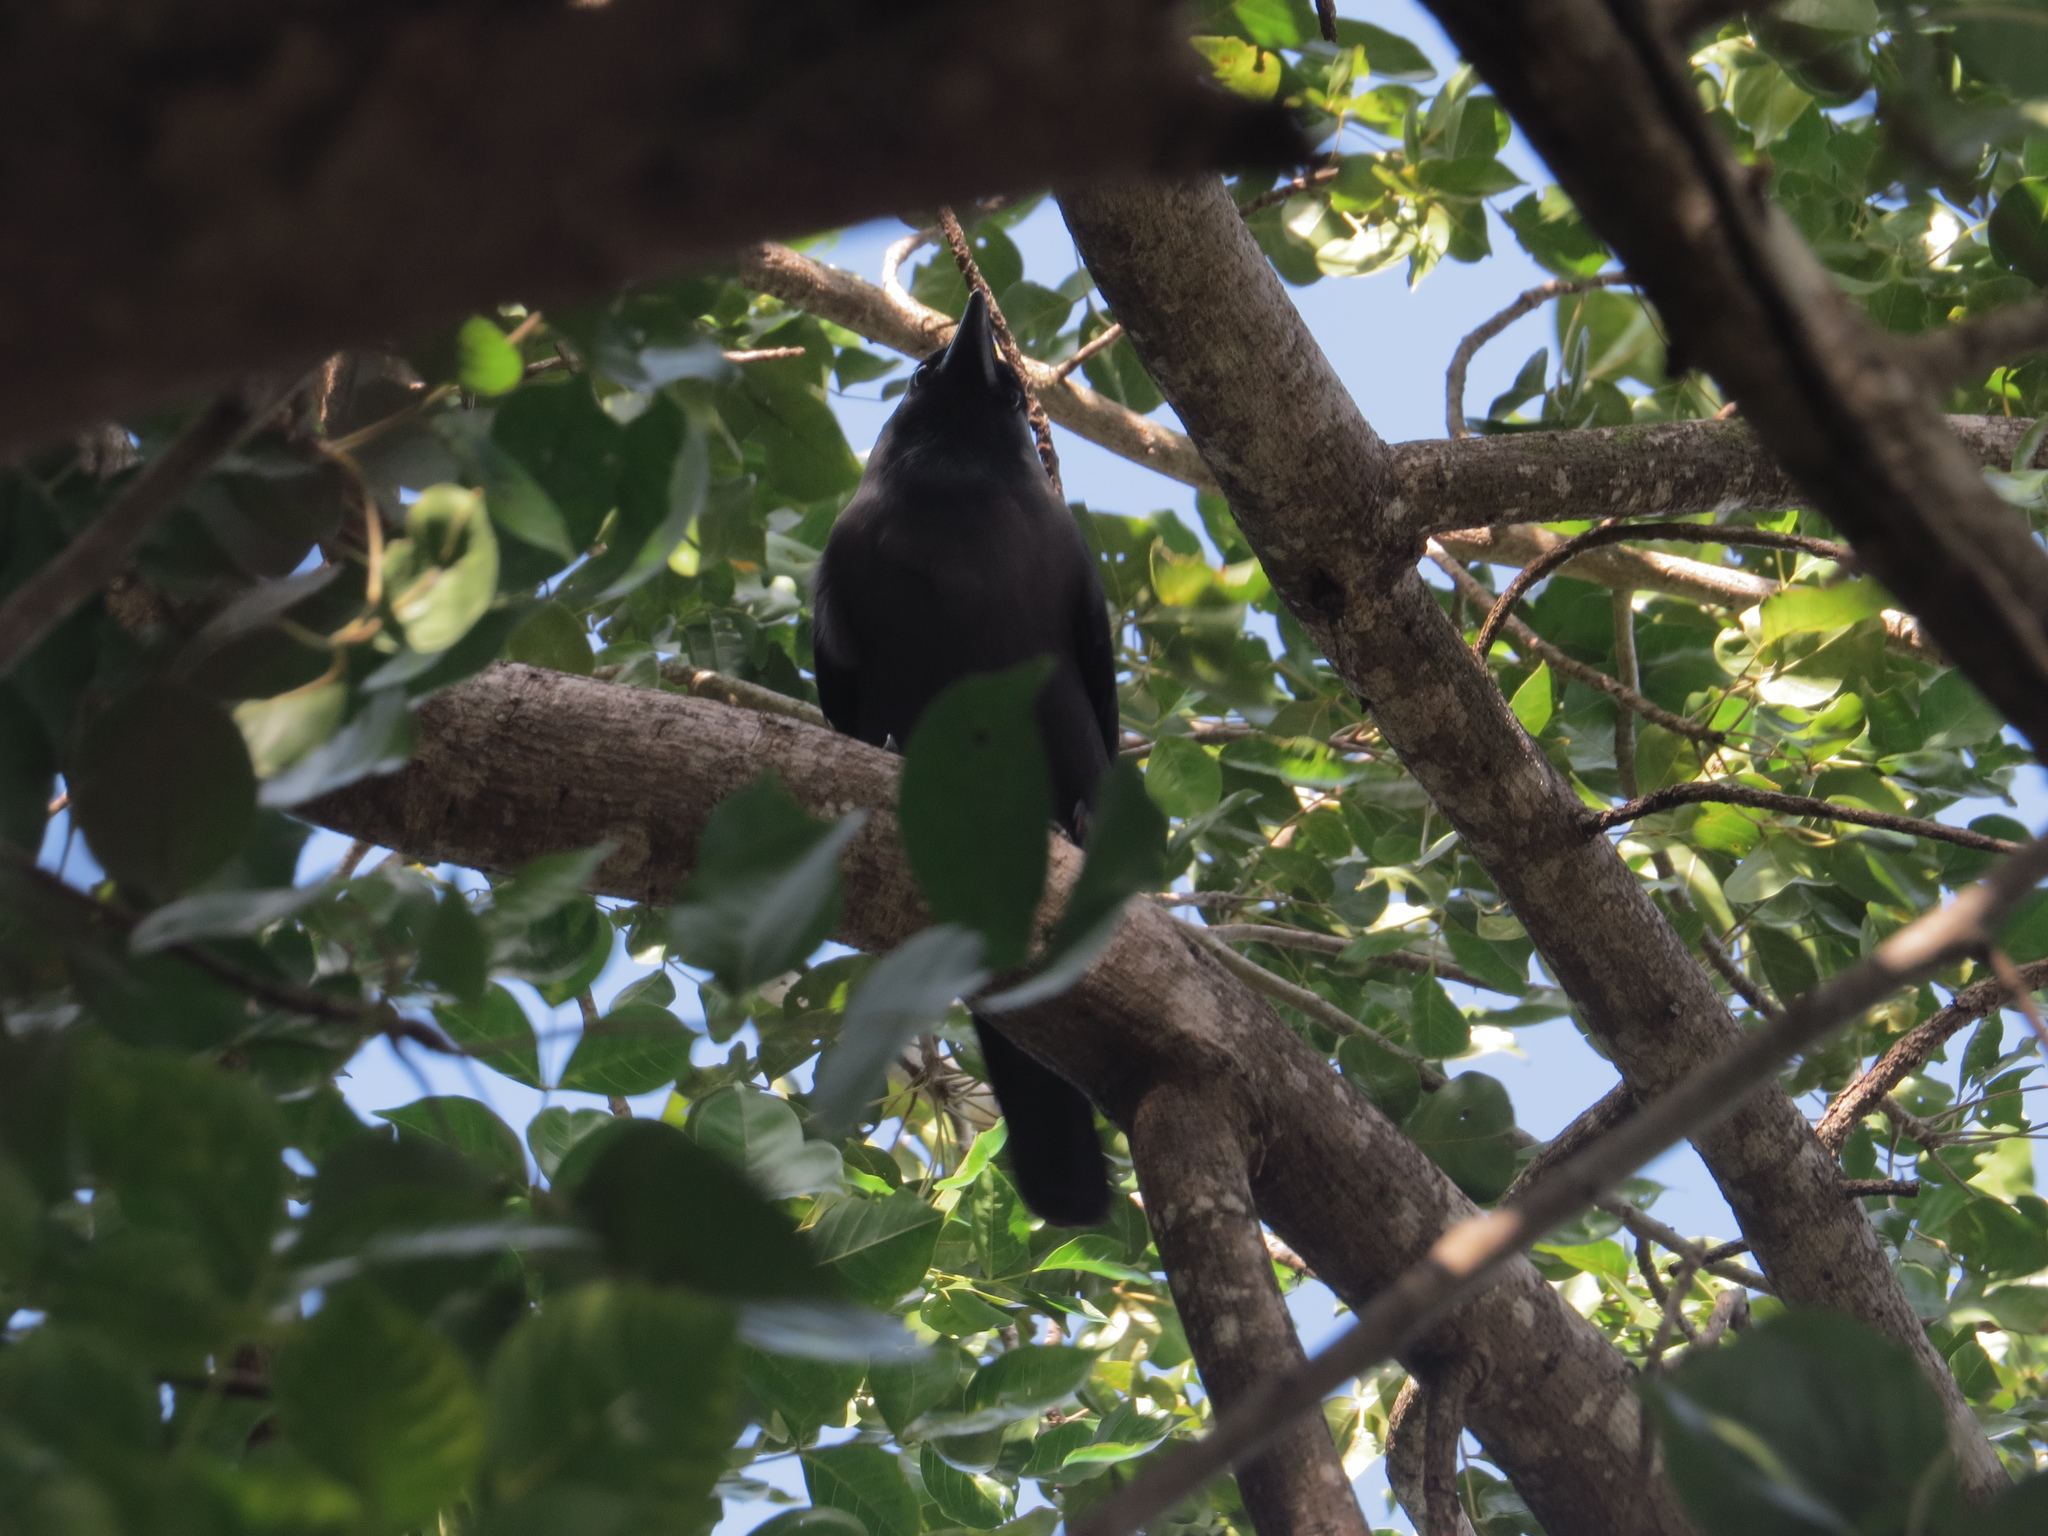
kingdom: Animalia
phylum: Chordata
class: Aves
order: Passeriformes
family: Corvidae
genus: Corvus
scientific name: Corvus splendens
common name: House crow
